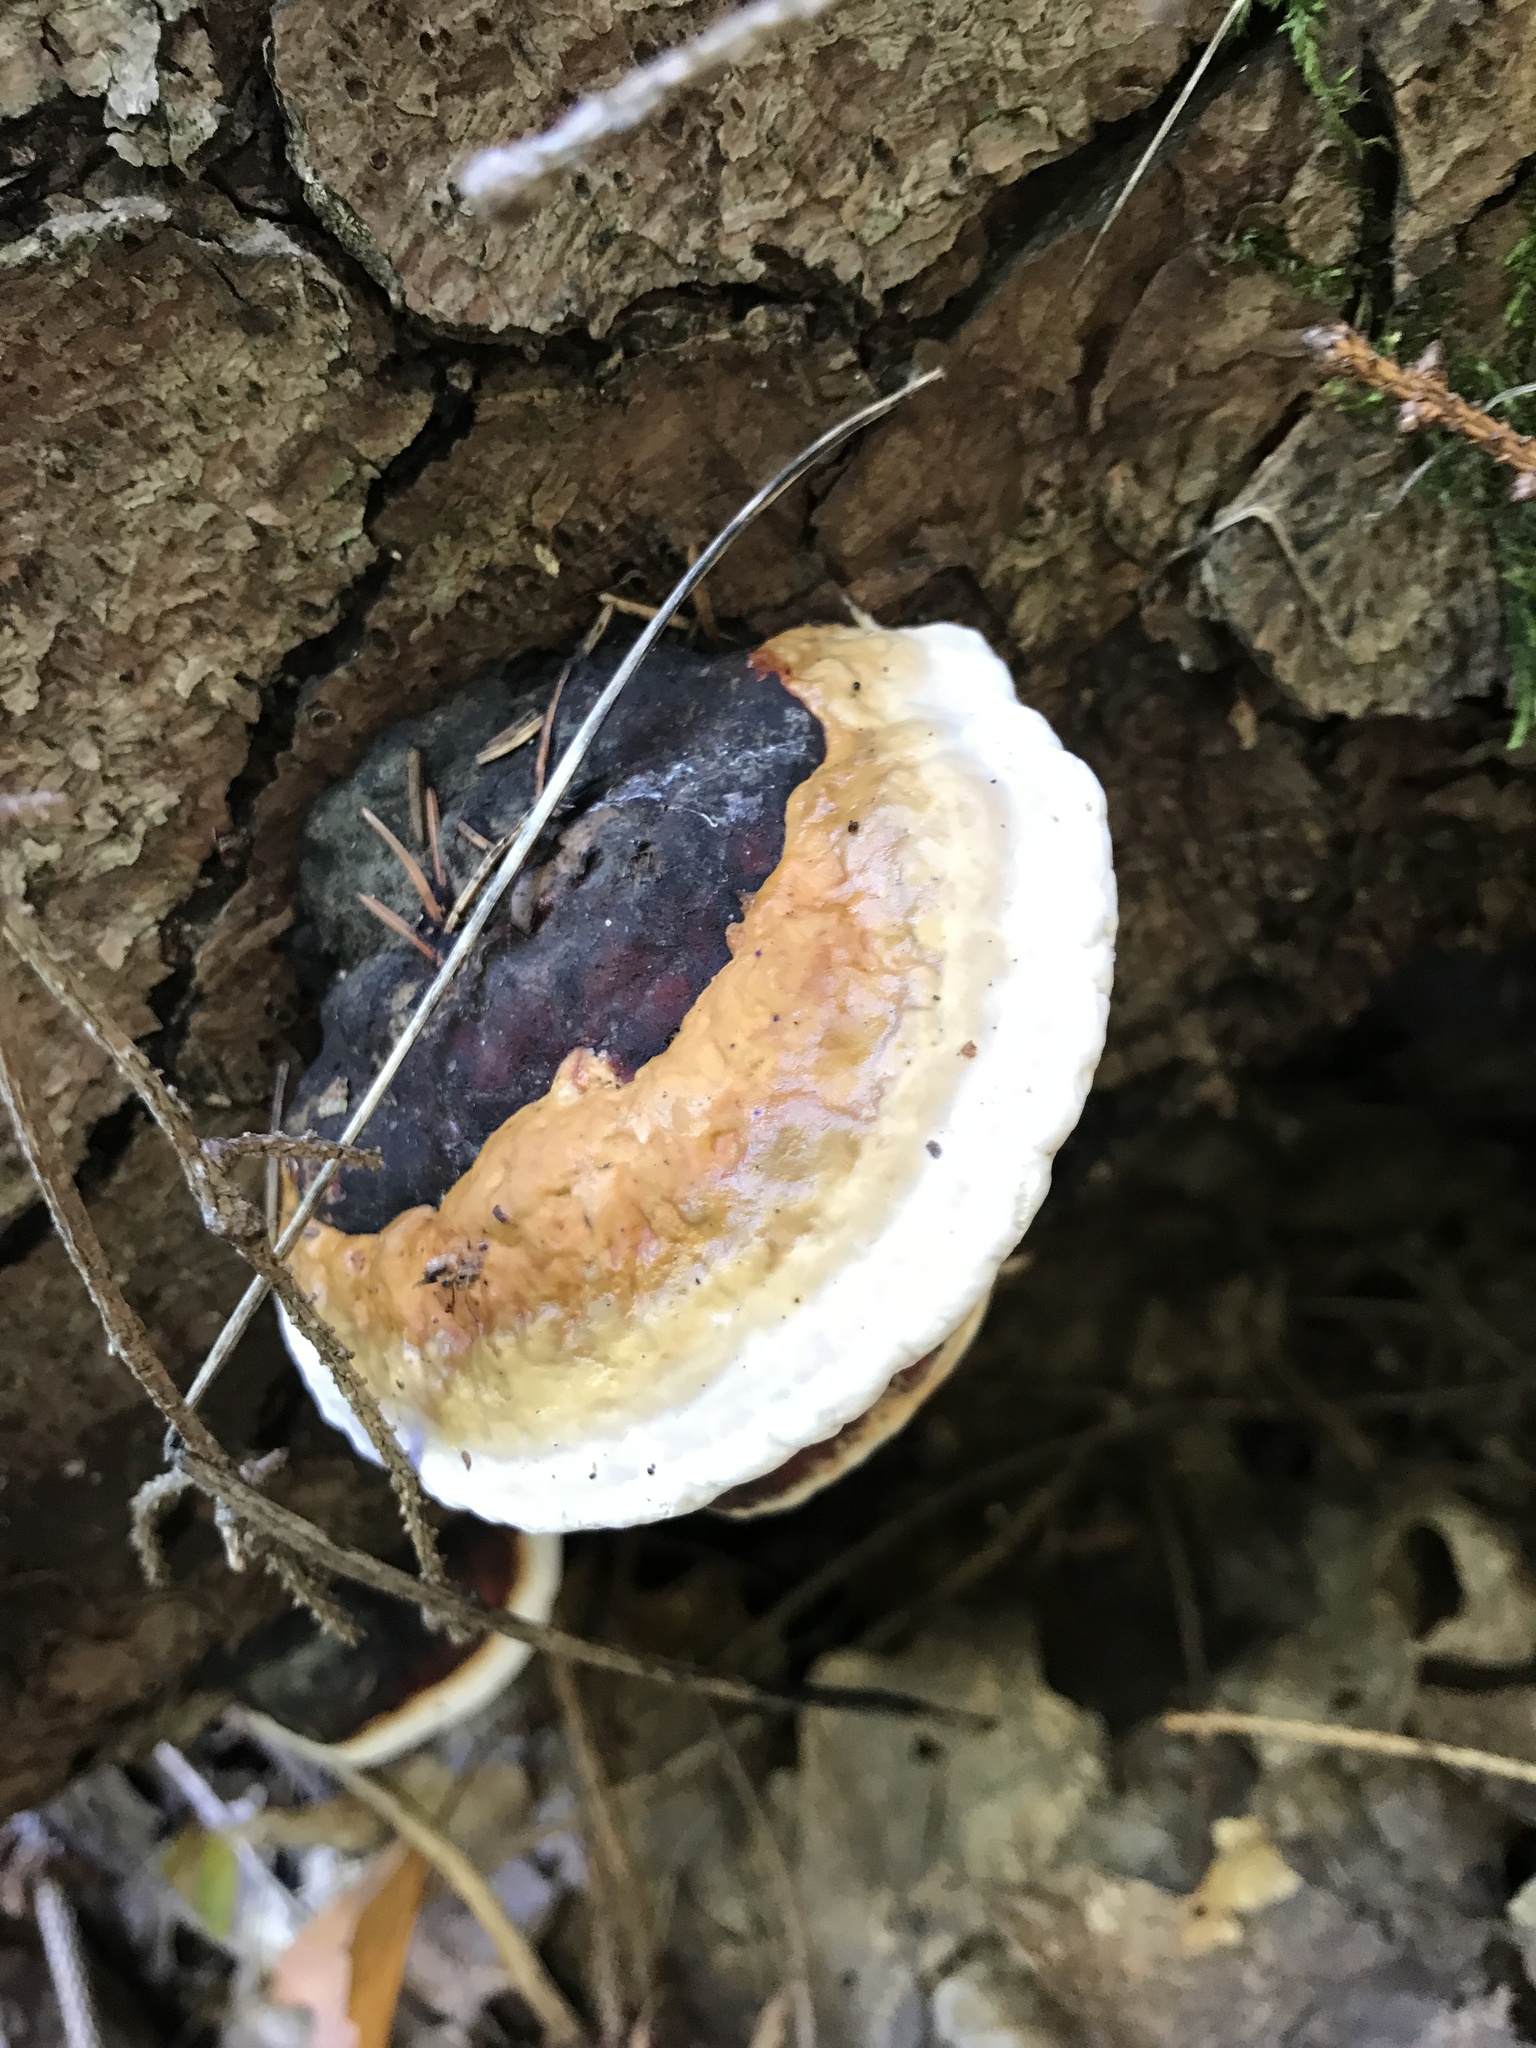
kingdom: Fungi
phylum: Basidiomycota
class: Agaricomycetes
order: Polyporales
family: Fomitopsidaceae
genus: Fomitopsis
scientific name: Fomitopsis pinicola
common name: Red-belted bracket
